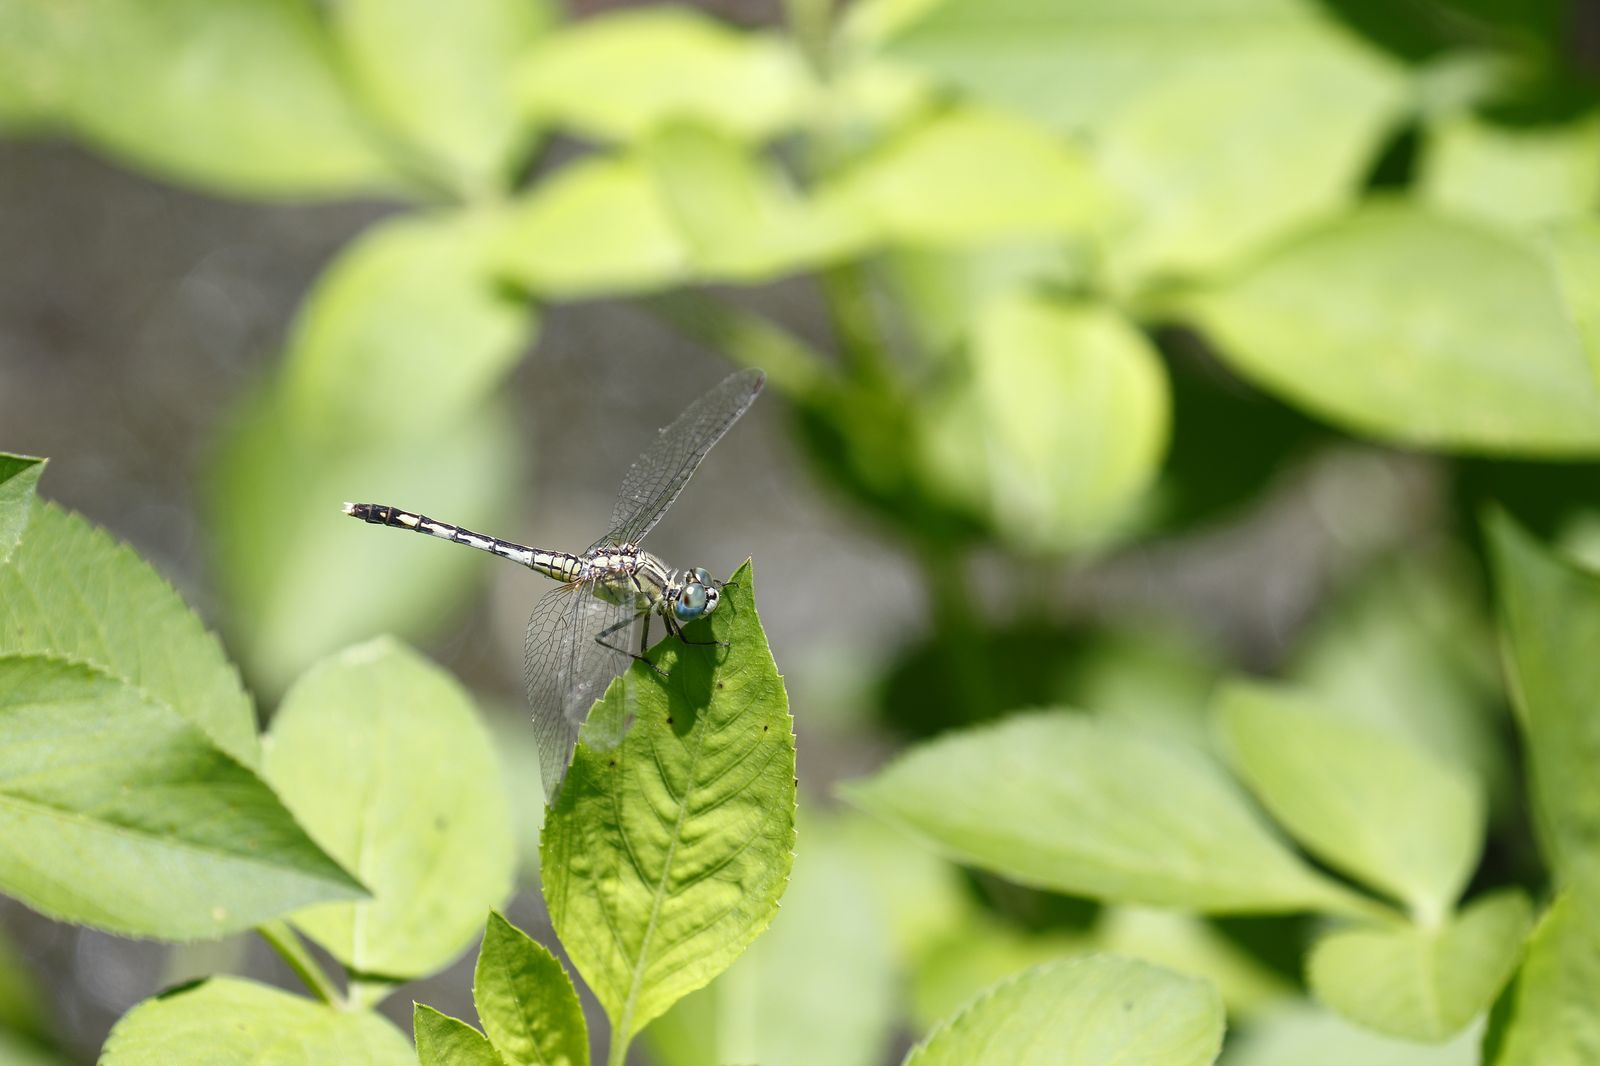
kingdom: Animalia
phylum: Arthropoda
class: Insecta
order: Odonata
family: Libellulidae
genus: Diplacodes
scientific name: Diplacodes trivialis
